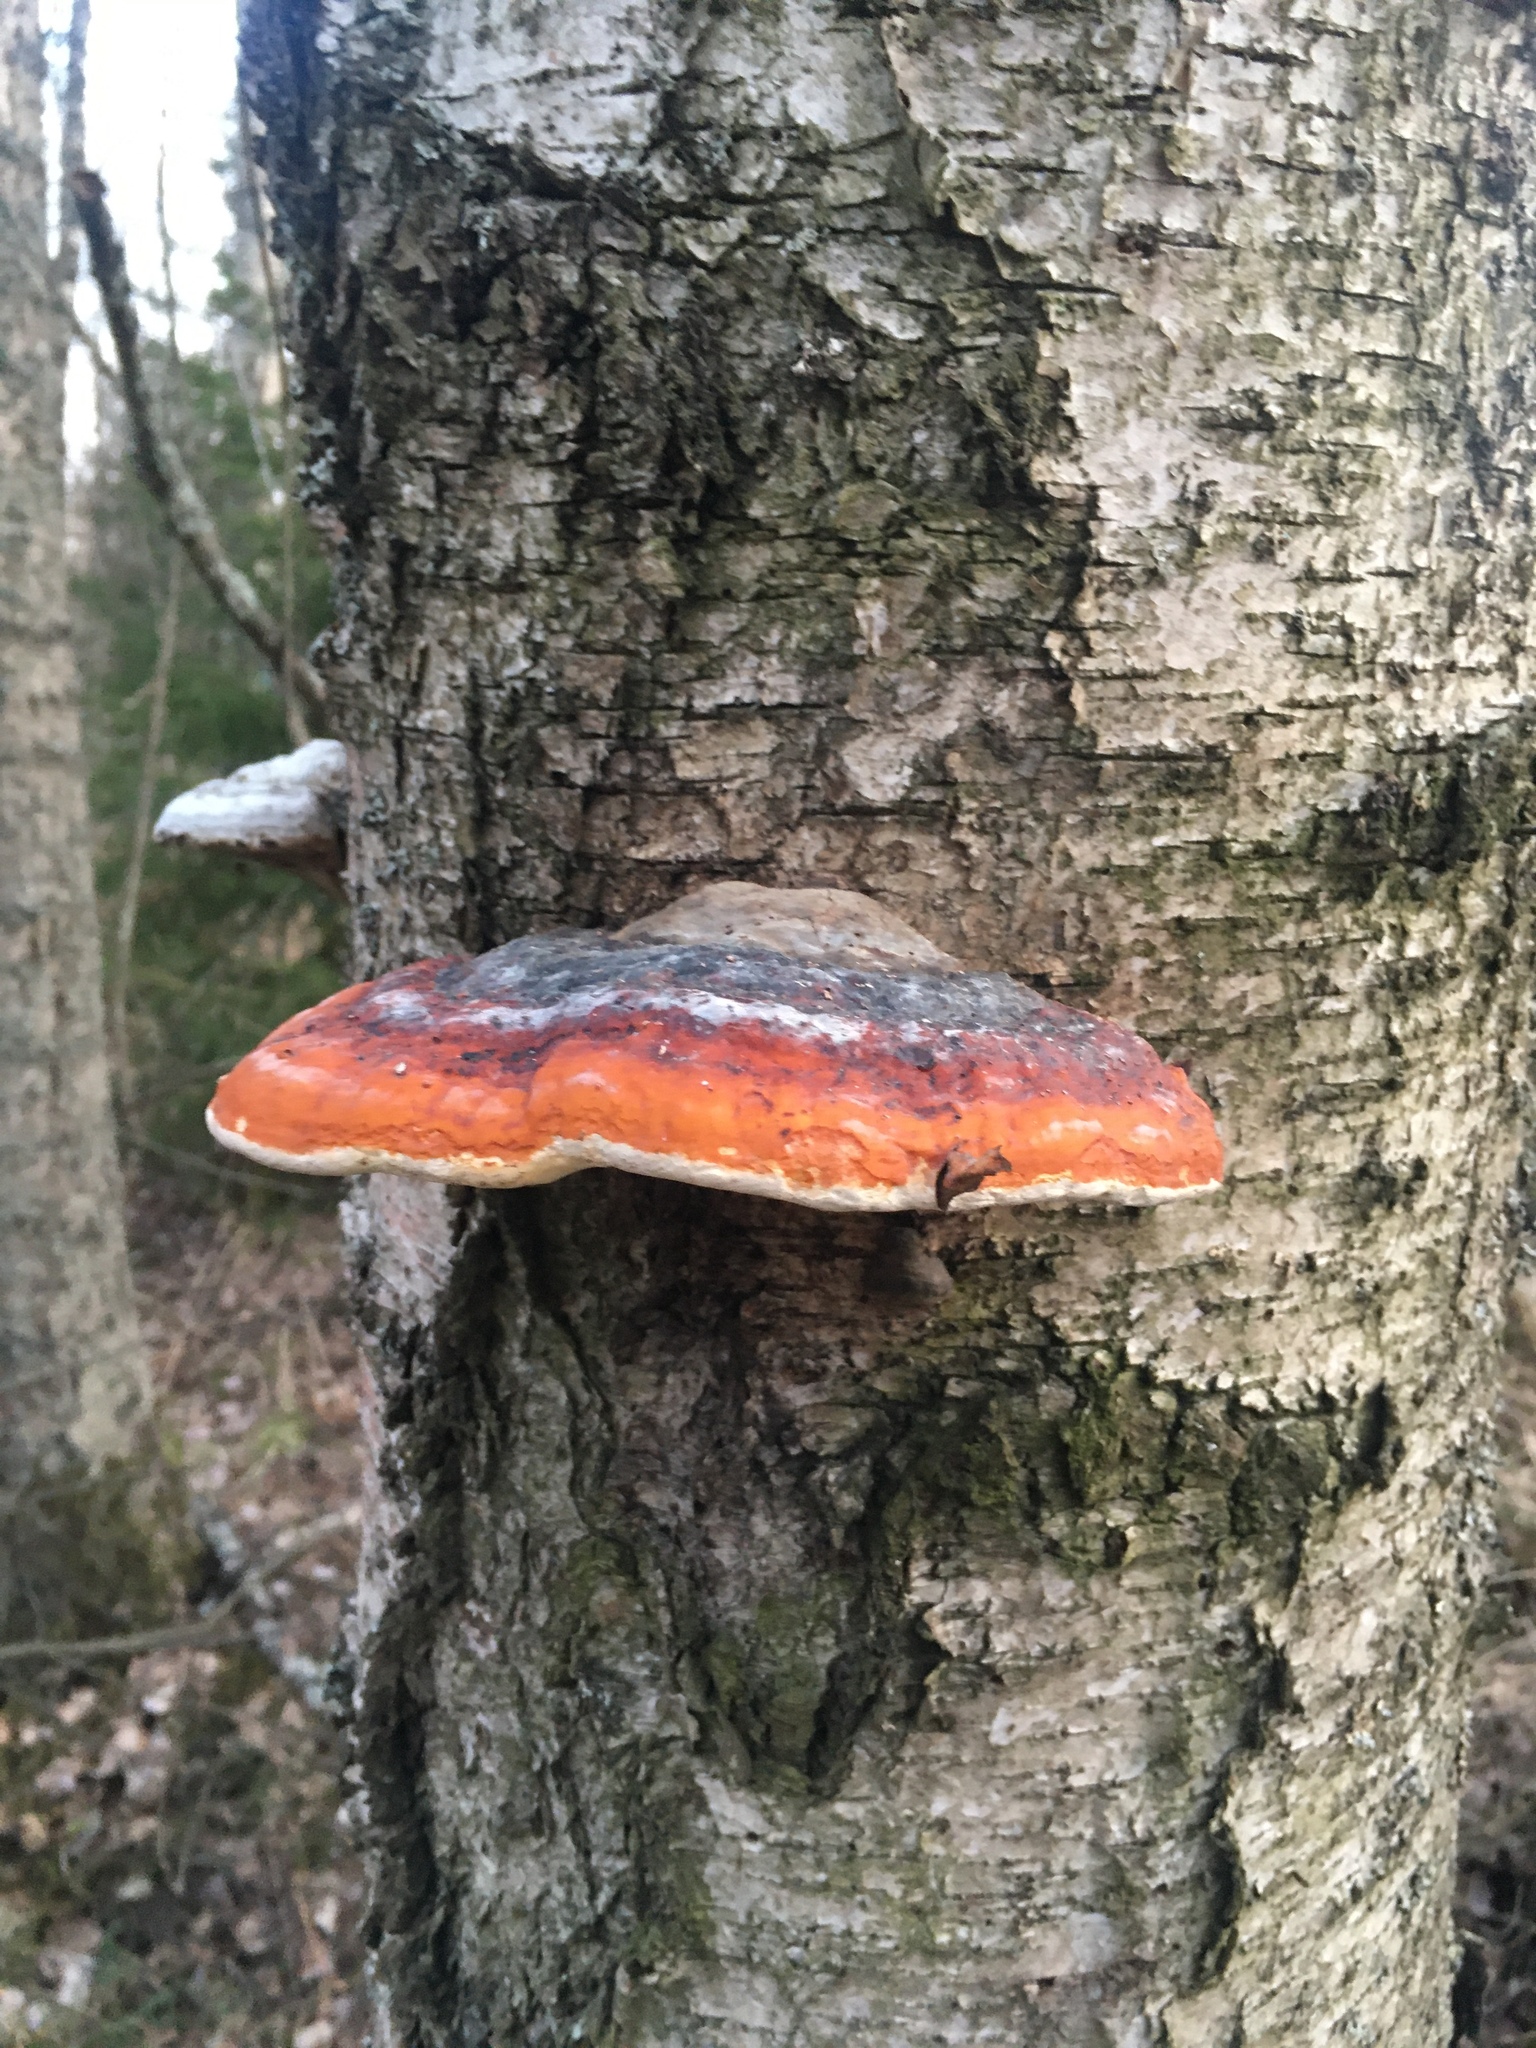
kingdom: Fungi
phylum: Basidiomycota
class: Agaricomycetes
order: Polyporales
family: Fomitopsidaceae
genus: Fomitopsis
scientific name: Fomitopsis pinicola
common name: Red-belted bracket
